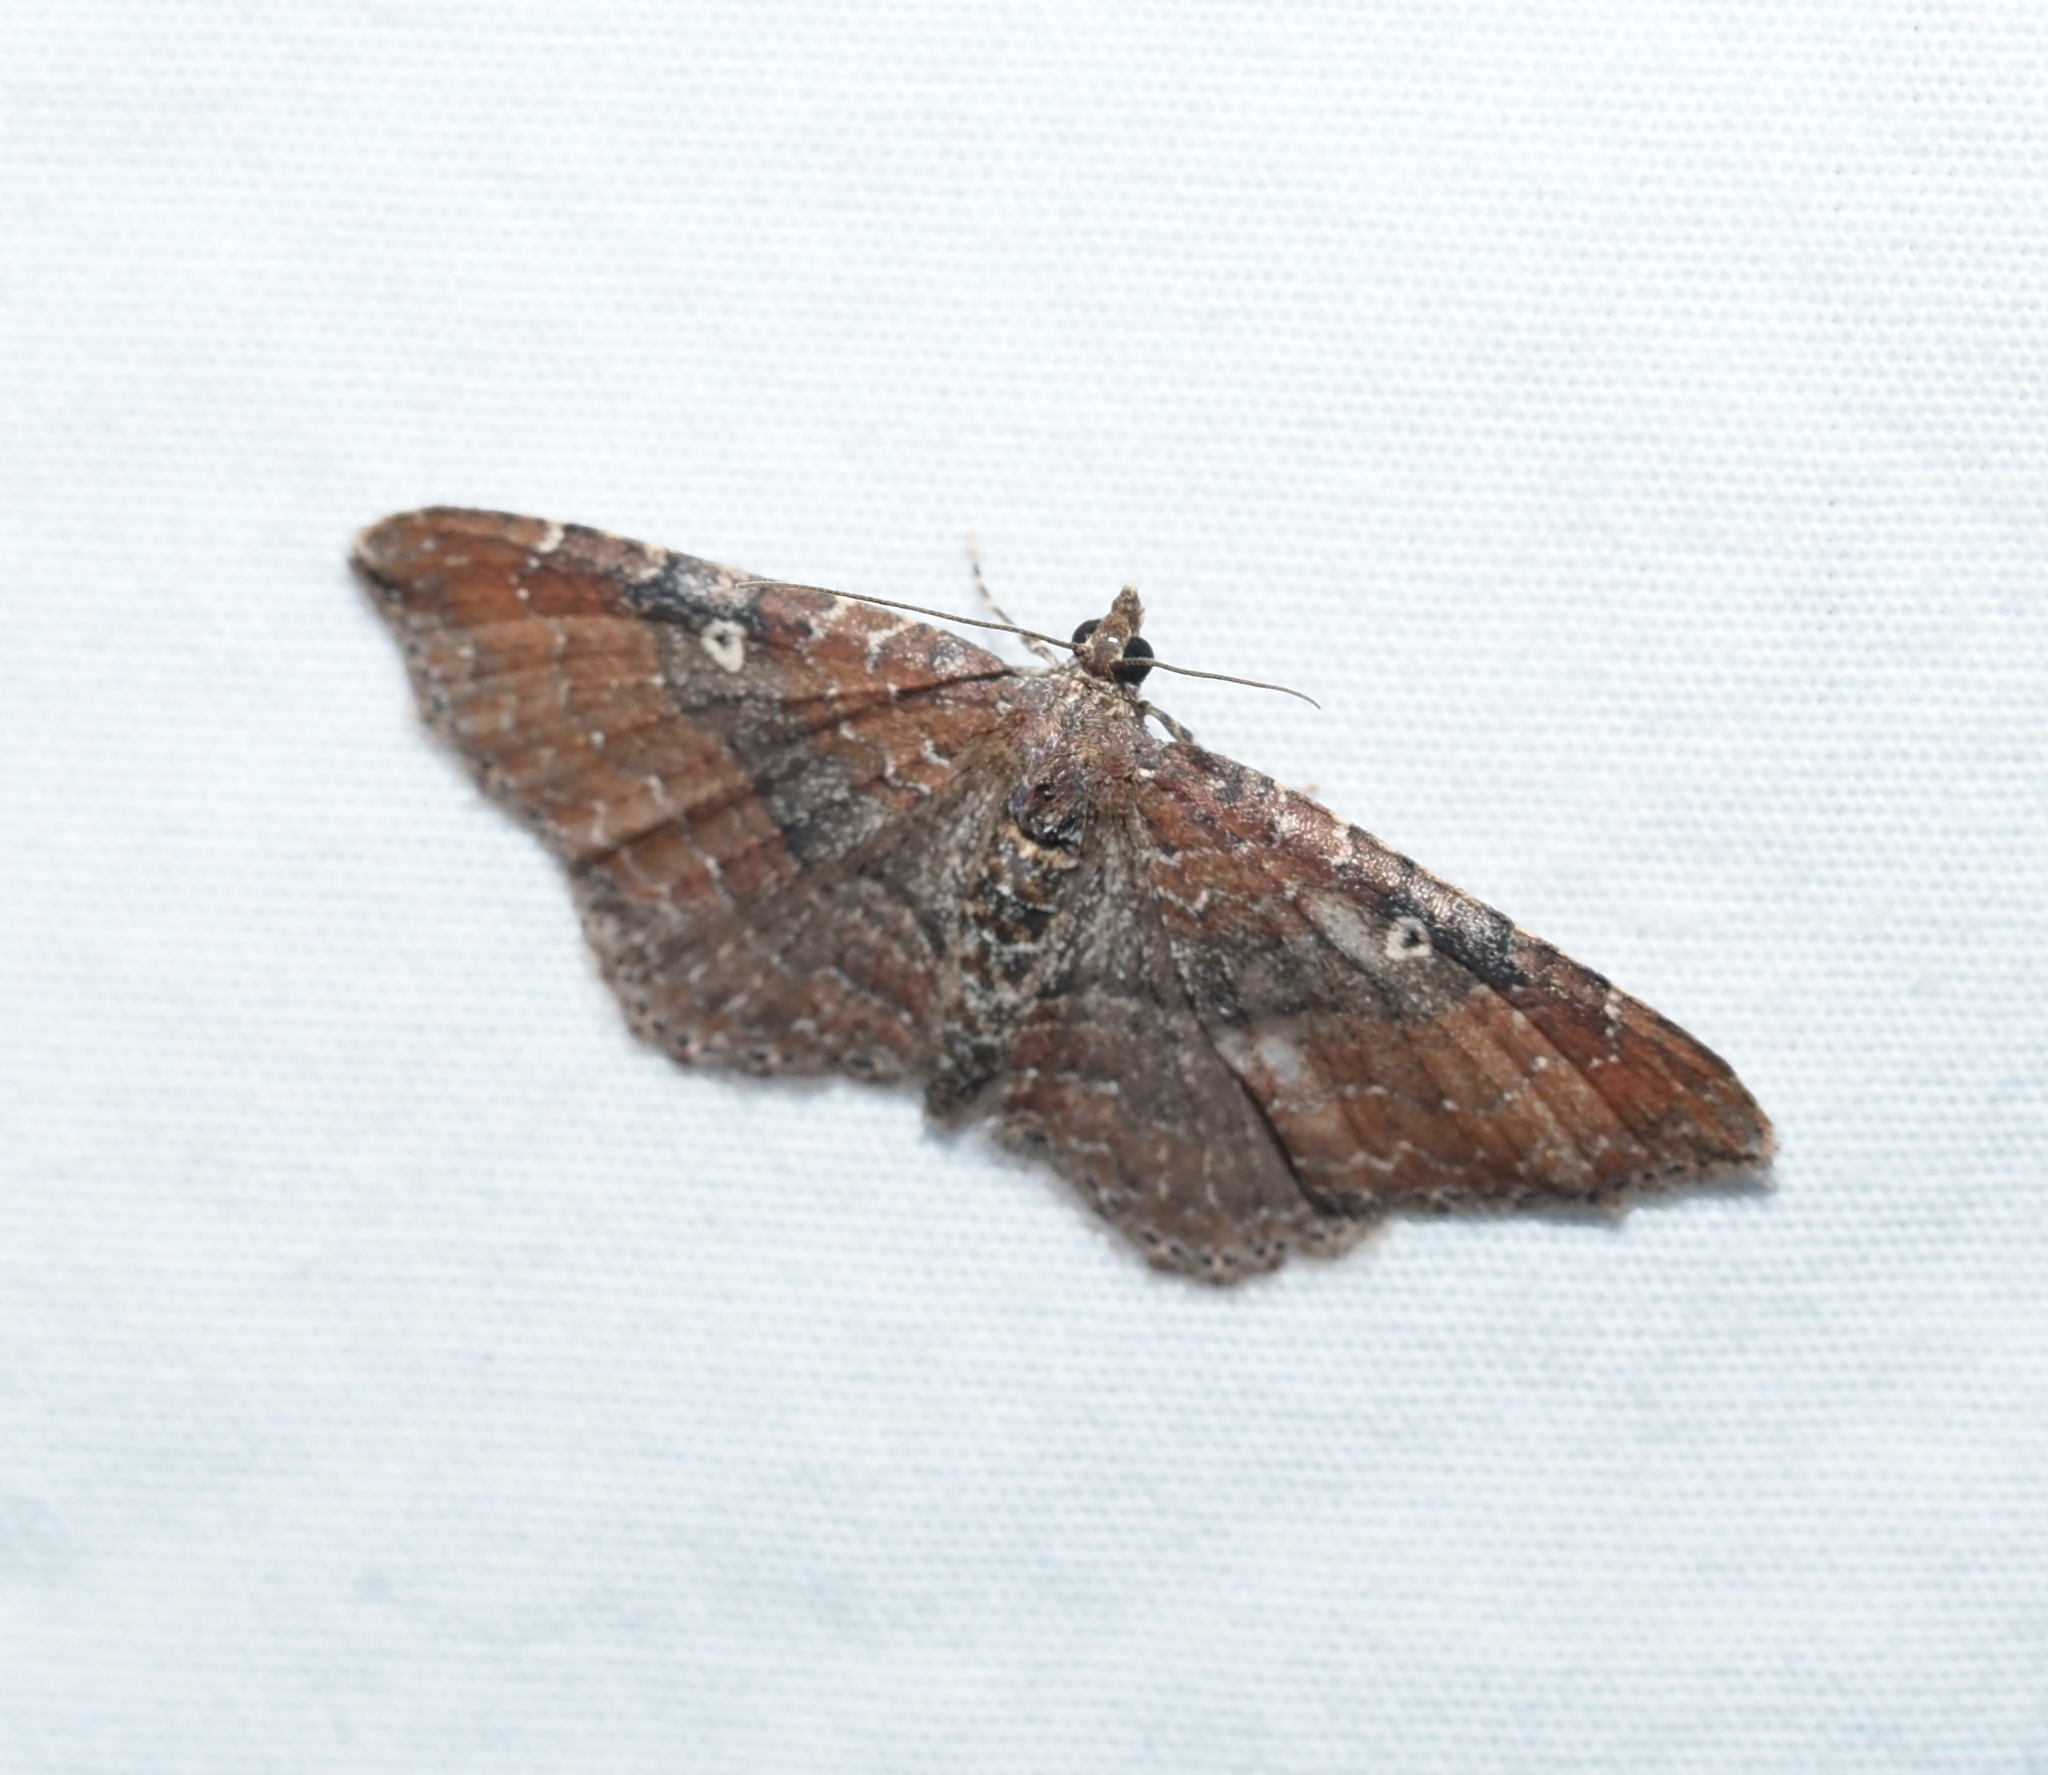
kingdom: Animalia
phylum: Arthropoda
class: Insecta
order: Lepidoptera
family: Geometridae
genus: Orthonama
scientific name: Orthonama obstipata
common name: The gem
